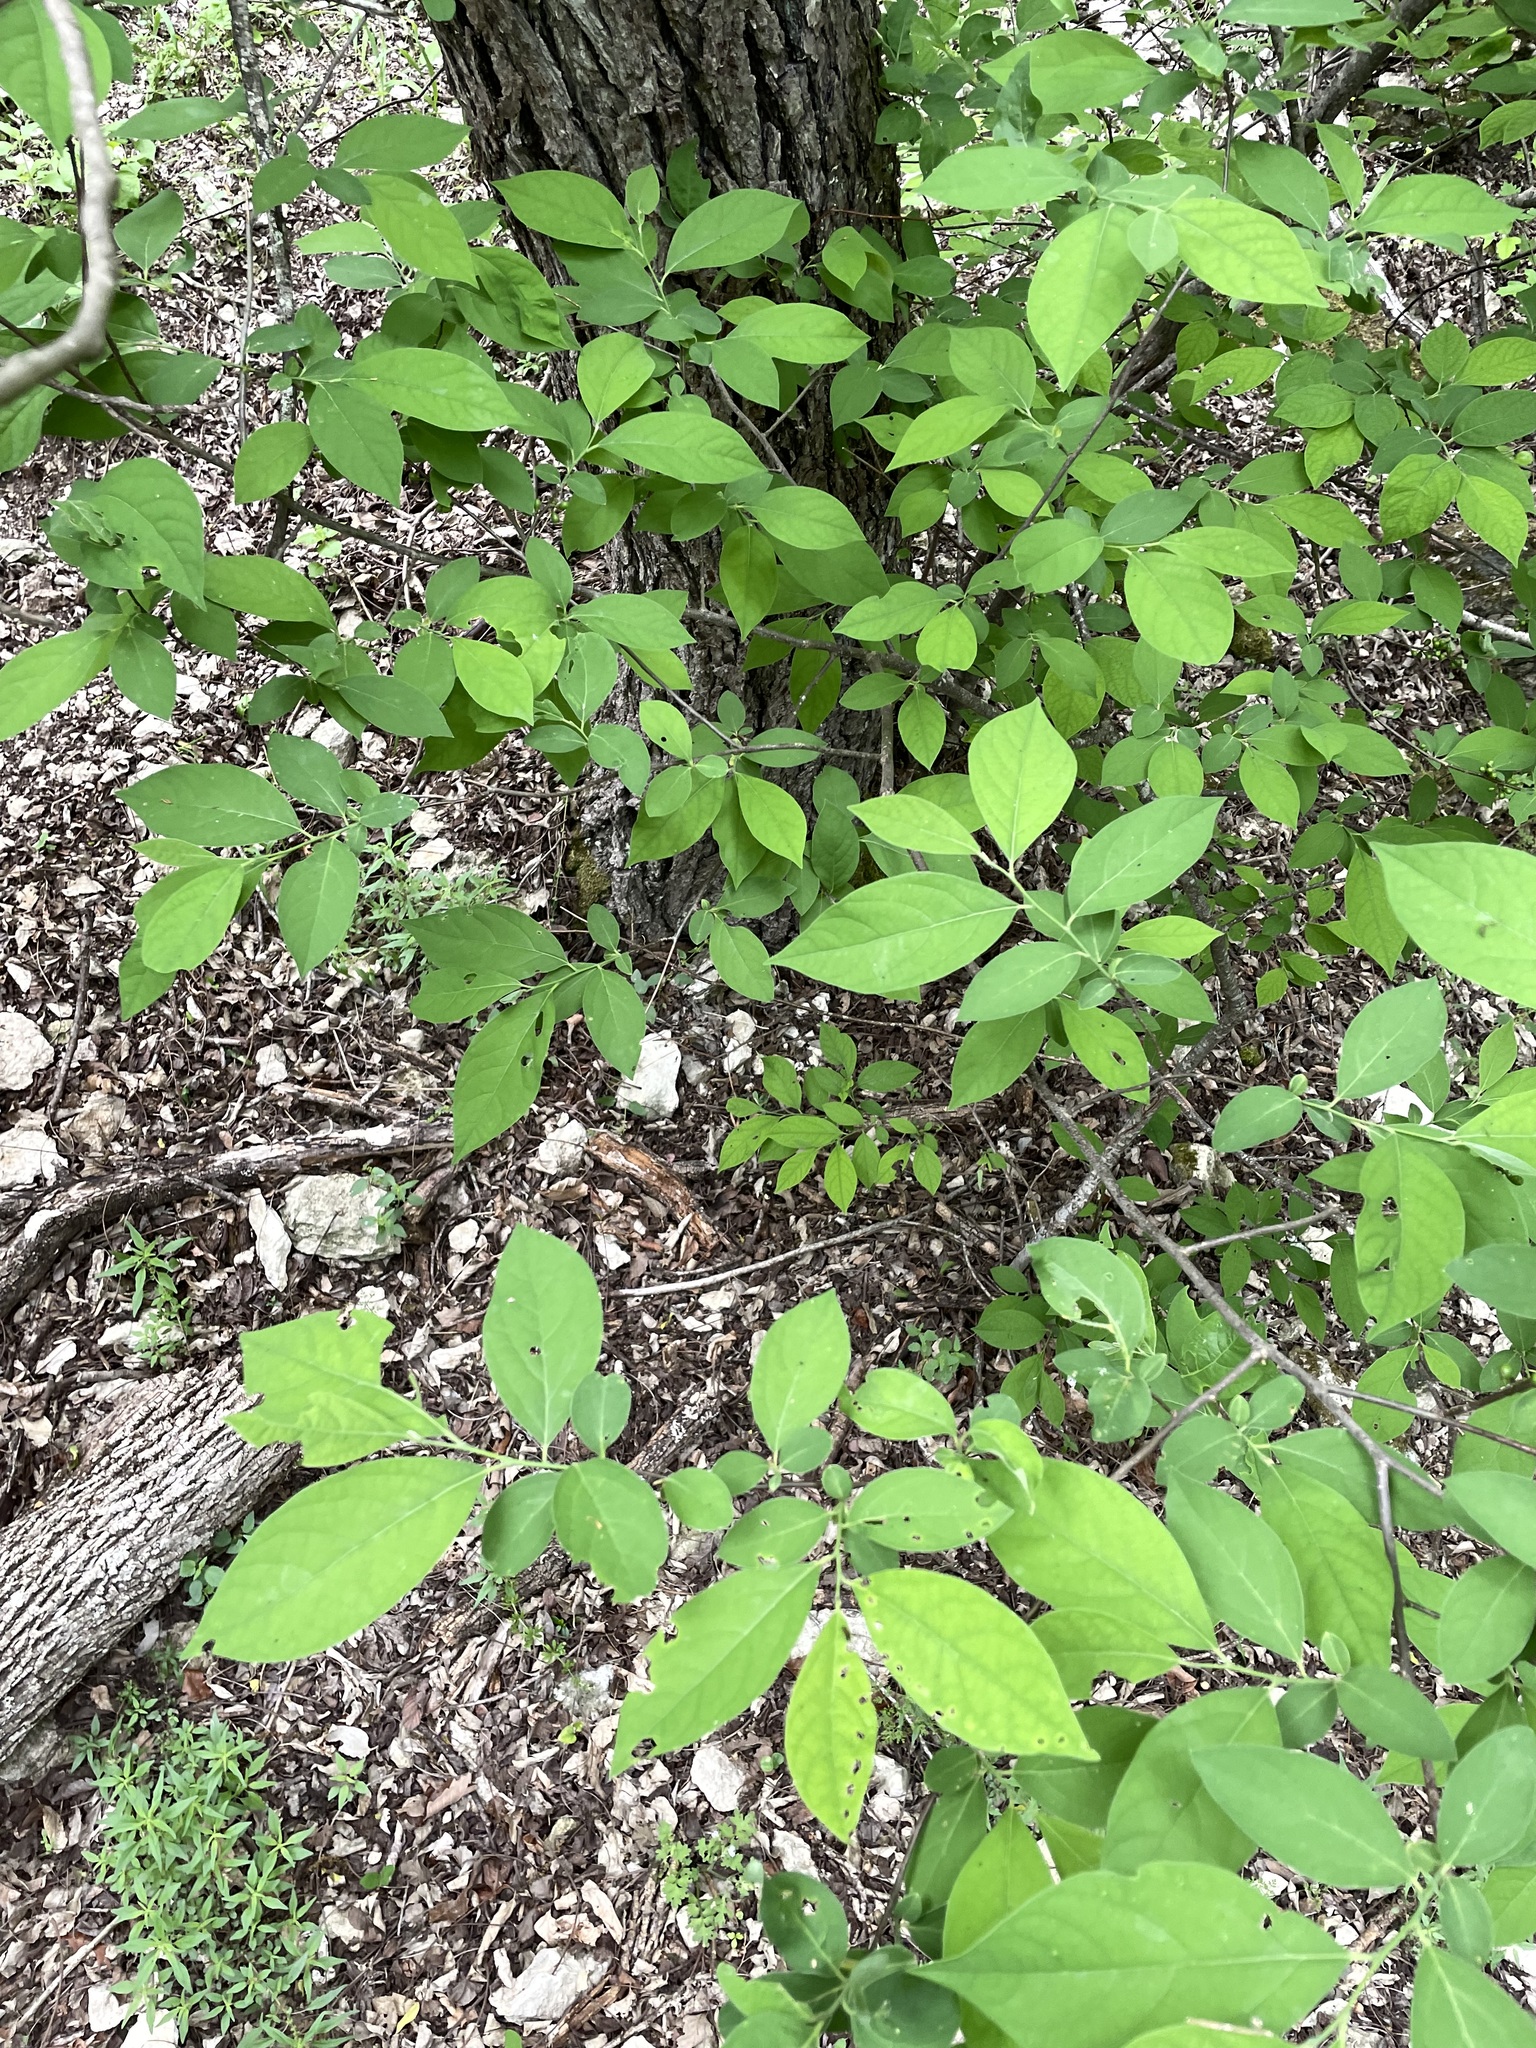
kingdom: Plantae
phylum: Tracheophyta
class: Magnoliopsida
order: Laurales
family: Lauraceae
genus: Lindera
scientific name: Lindera benzoin
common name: Spicebush
